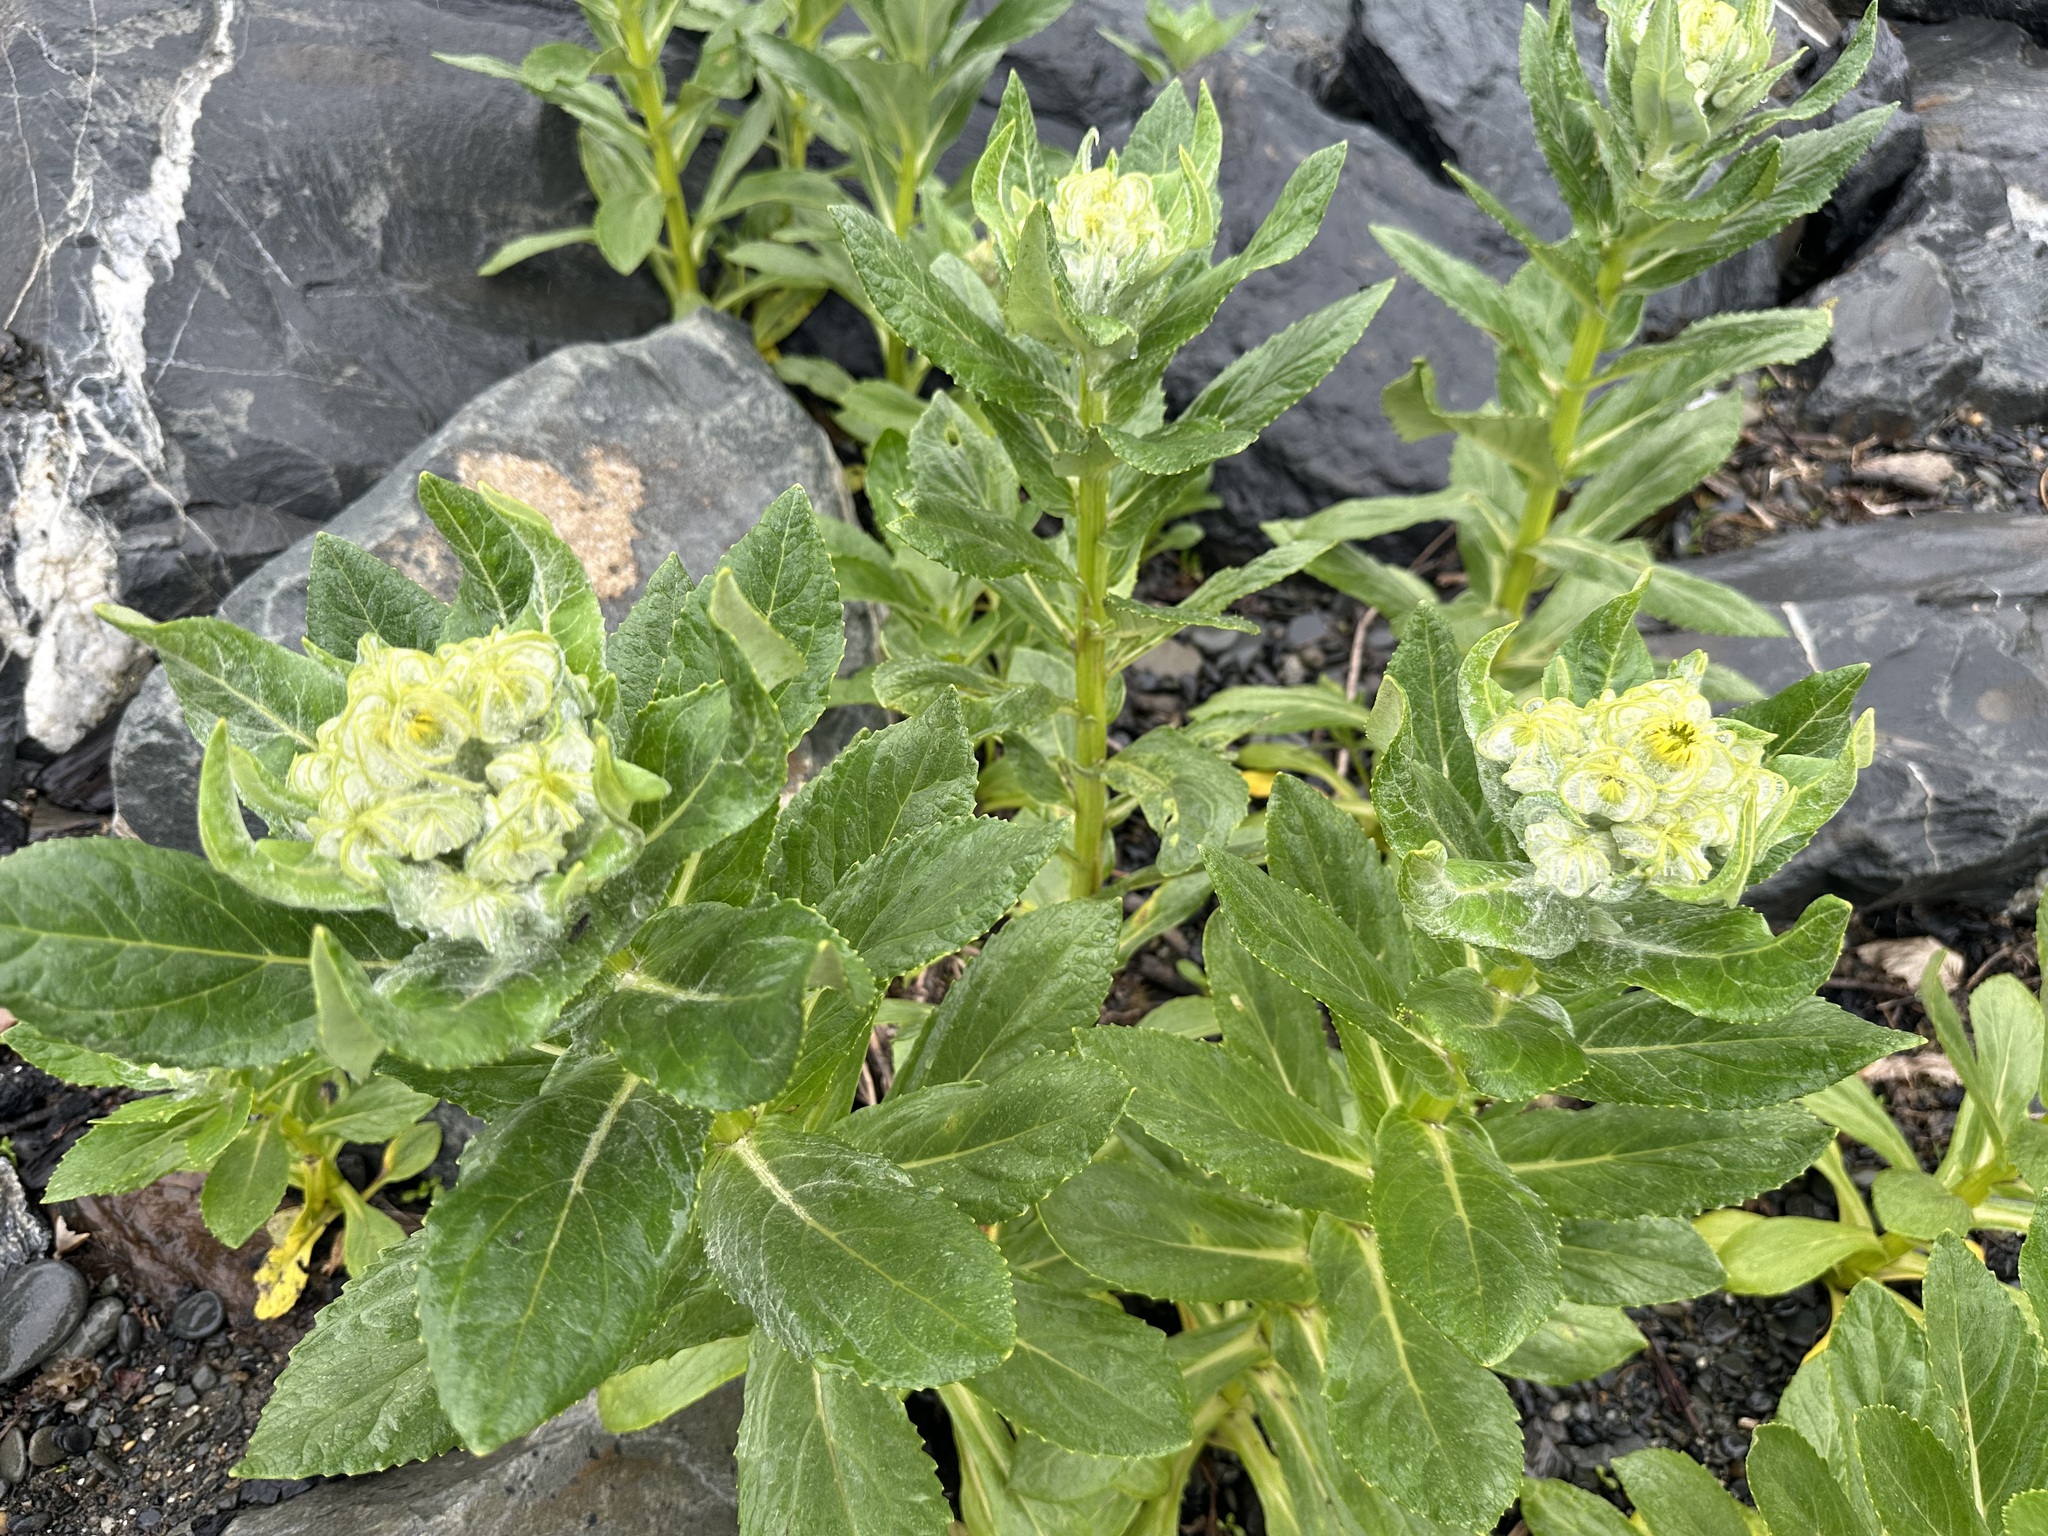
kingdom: Plantae
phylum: Tracheophyta
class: Magnoliopsida
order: Asterales
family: Asteraceae
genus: Jacobaea
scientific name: Jacobaea pseudoarnica
